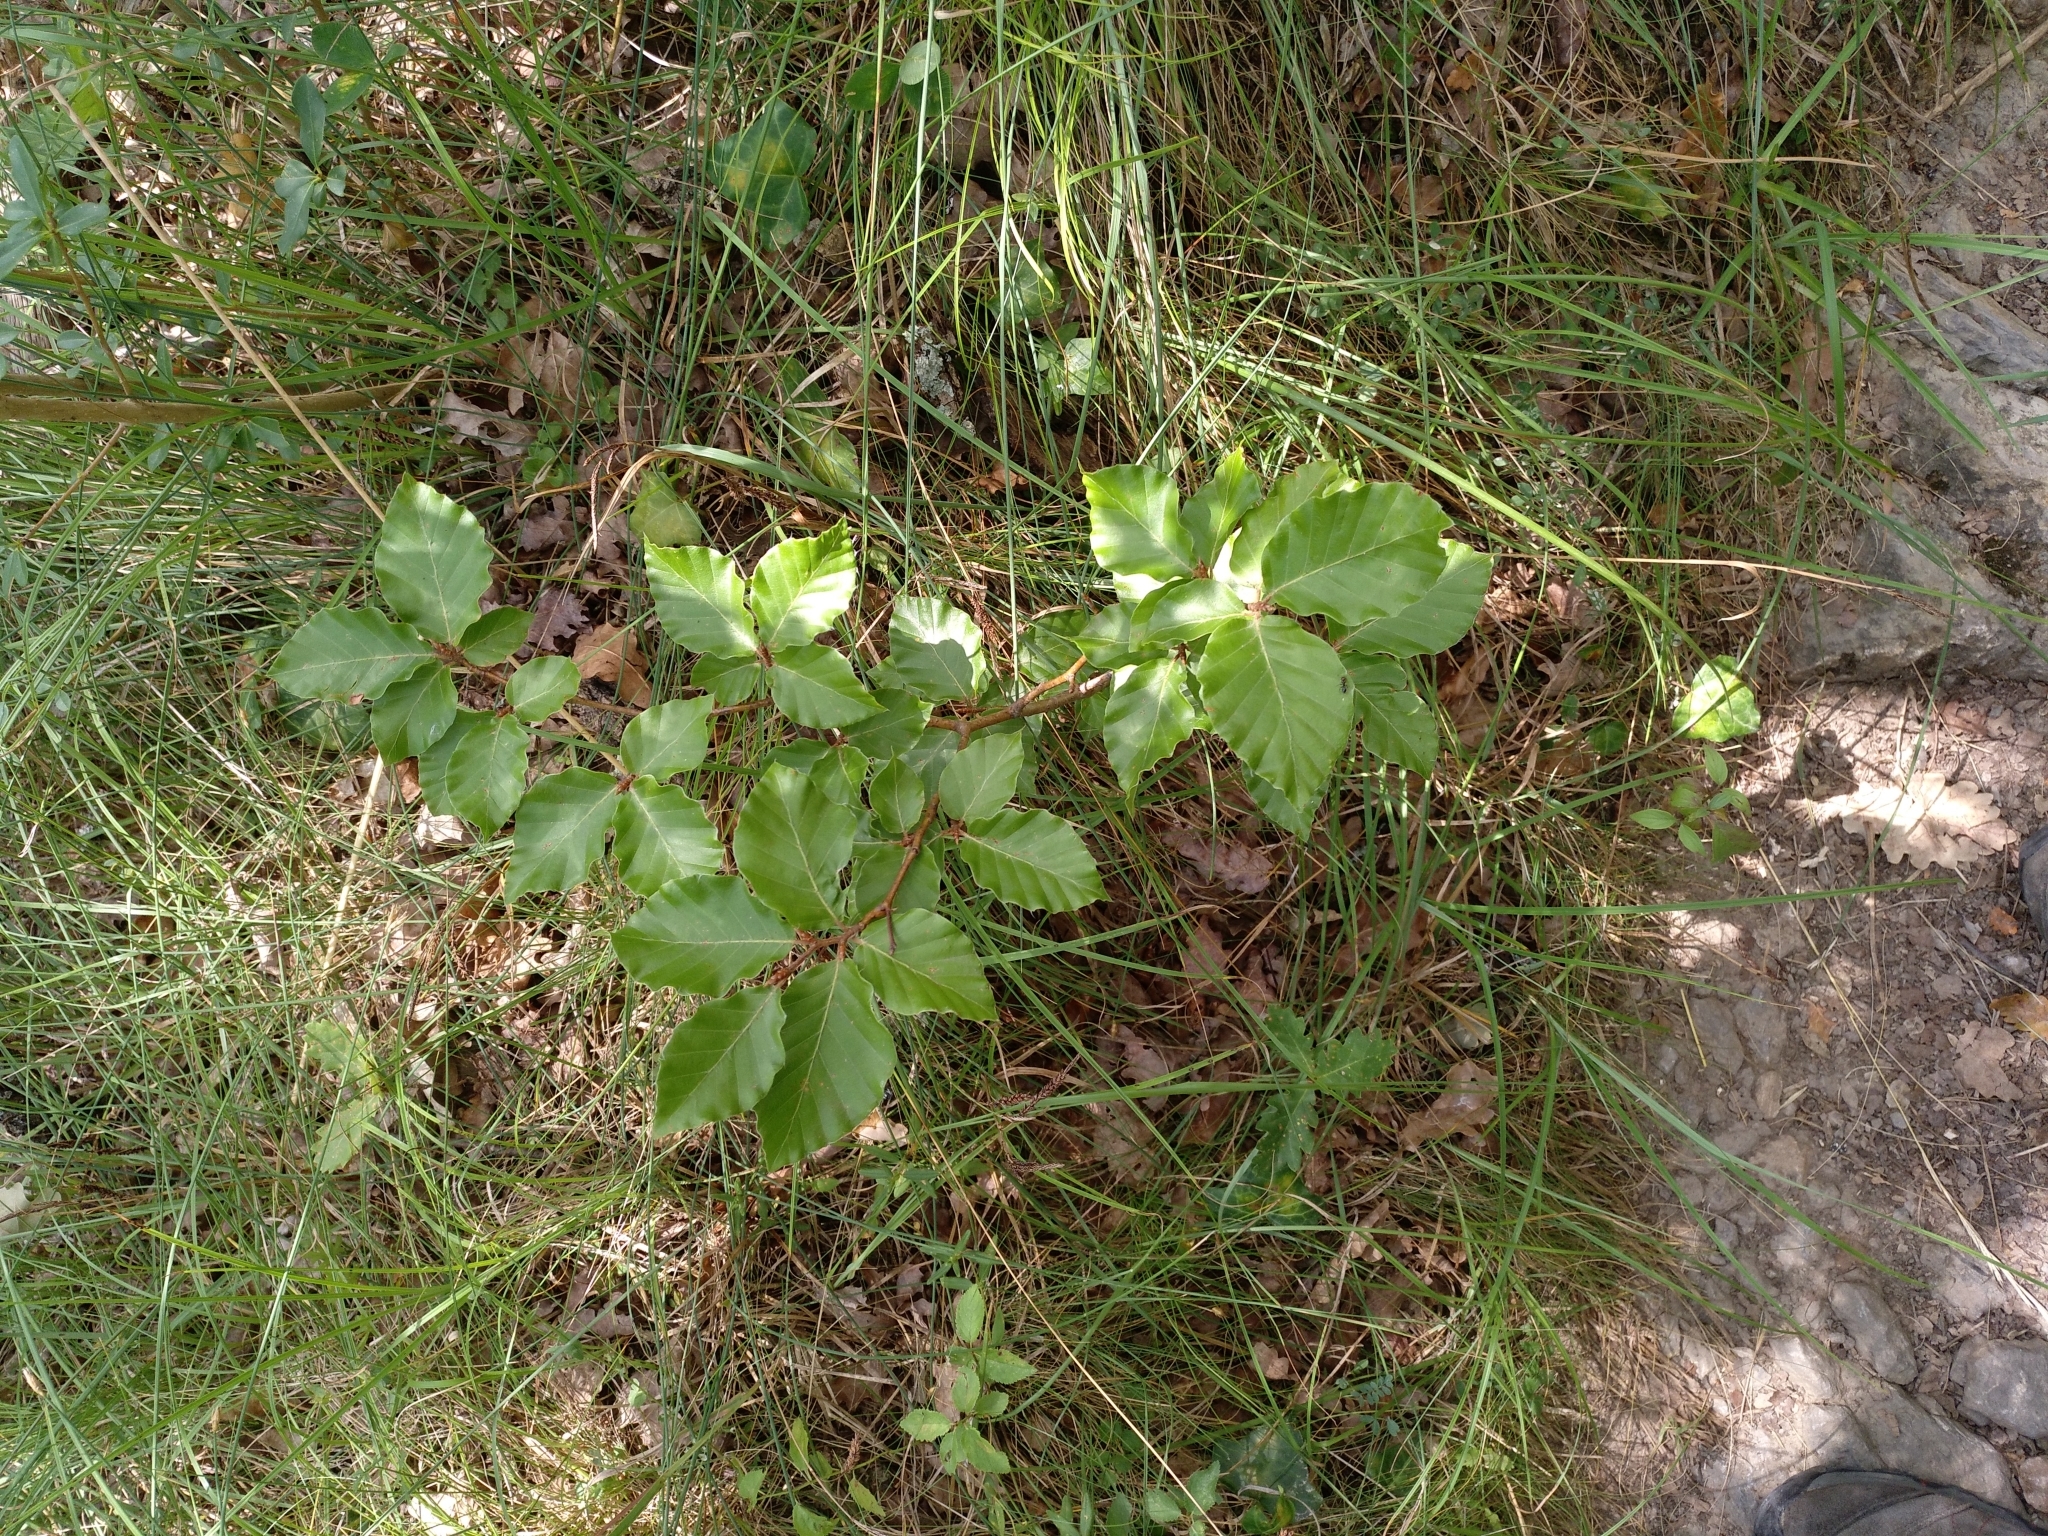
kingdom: Plantae
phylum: Tracheophyta
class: Magnoliopsida
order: Fagales
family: Fagaceae
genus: Fagus
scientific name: Fagus sylvatica
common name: Beech
